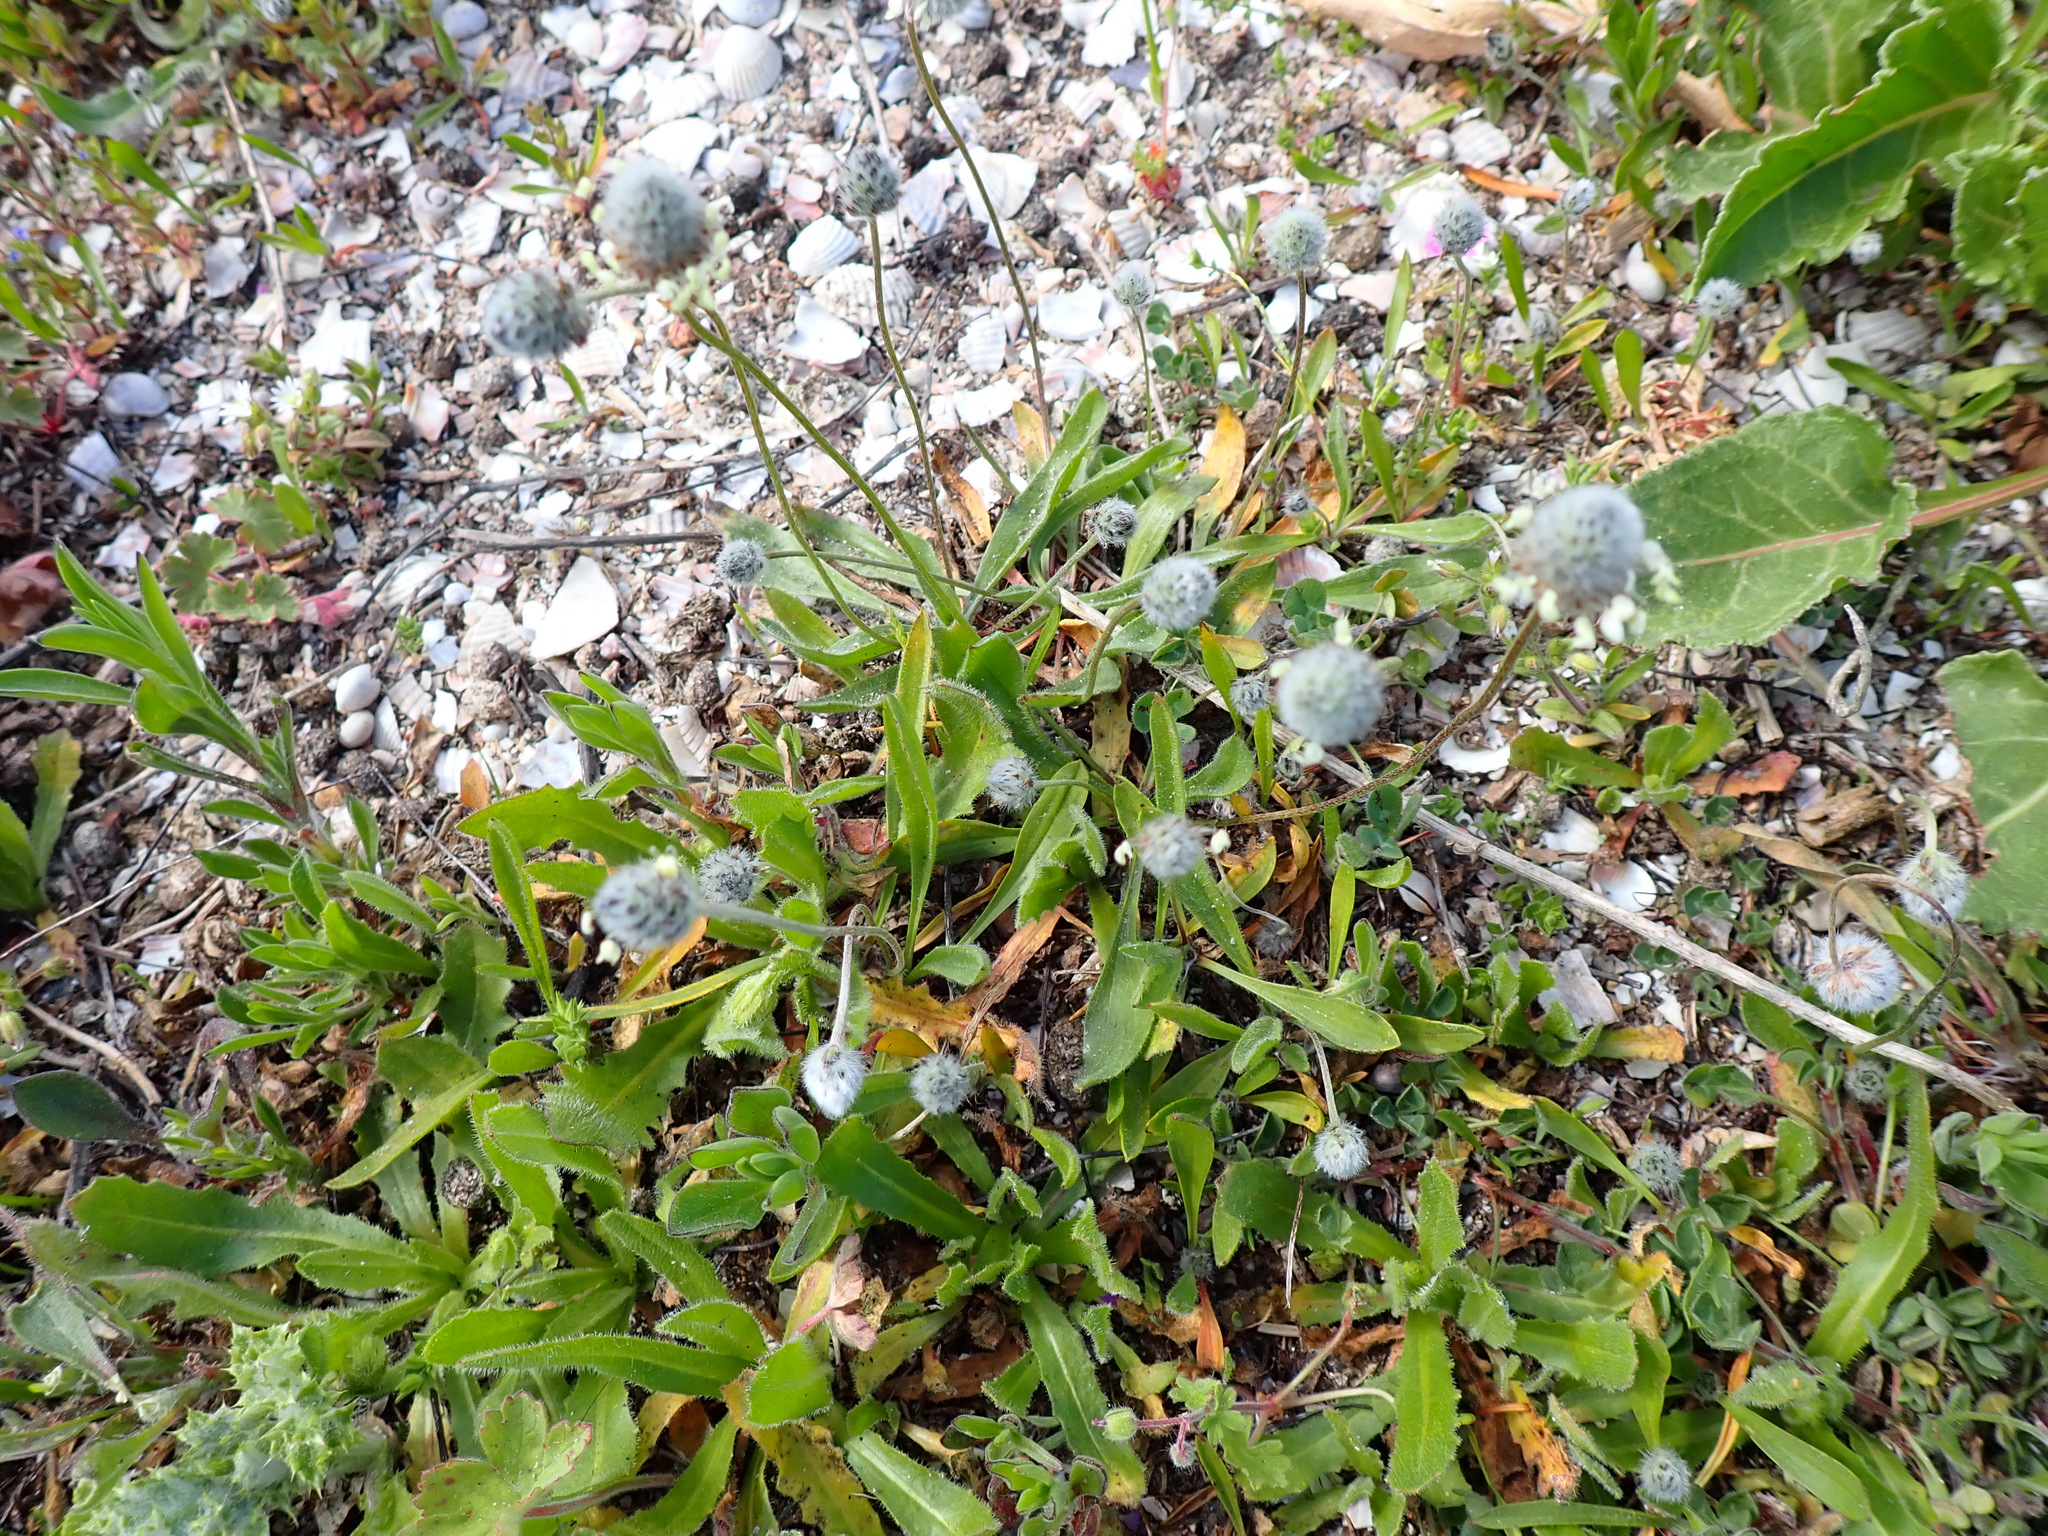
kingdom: Plantae
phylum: Tracheophyta
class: Magnoliopsida
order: Lamiales
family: Plantaginaceae
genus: Plantago
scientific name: Plantago lagopus
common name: Hare-foot plantain
